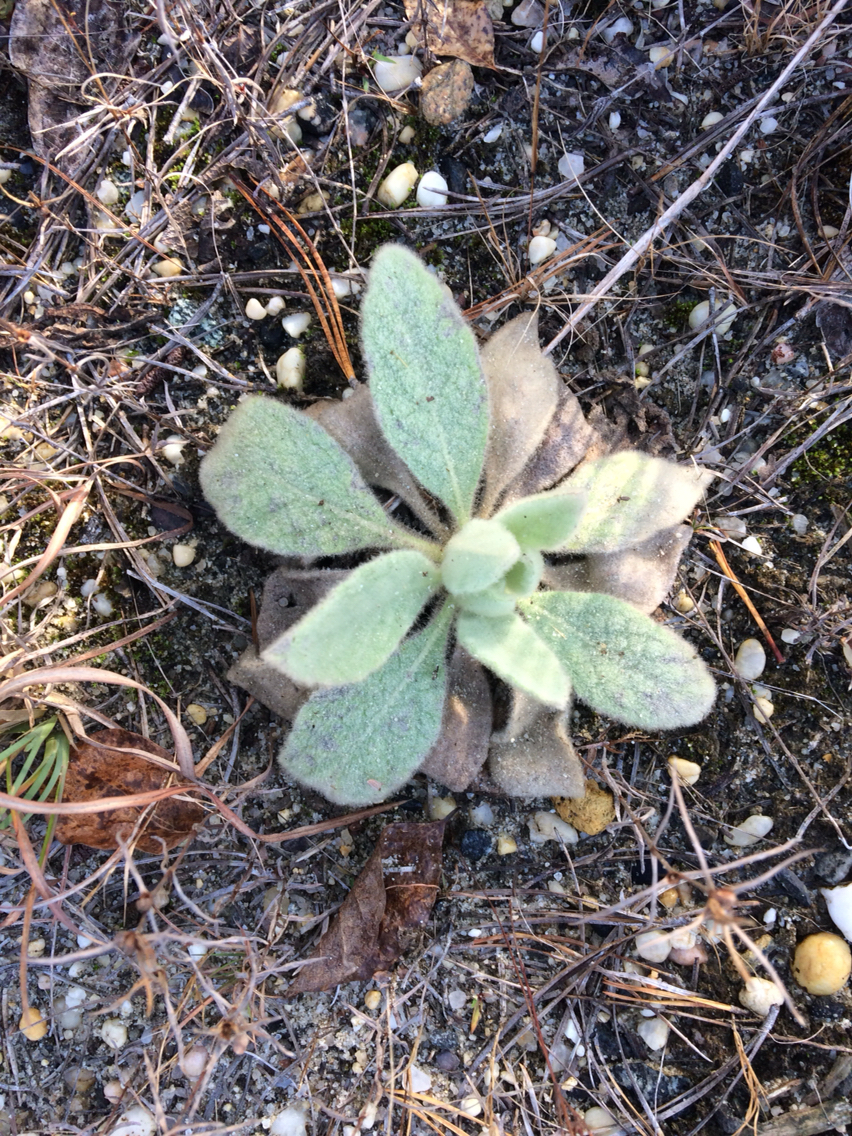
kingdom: Plantae
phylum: Tracheophyta
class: Magnoliopsida
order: Lamiales
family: Scrophulariaceae
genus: Verbascum
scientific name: Verbascum thapsus
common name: Common mullein
